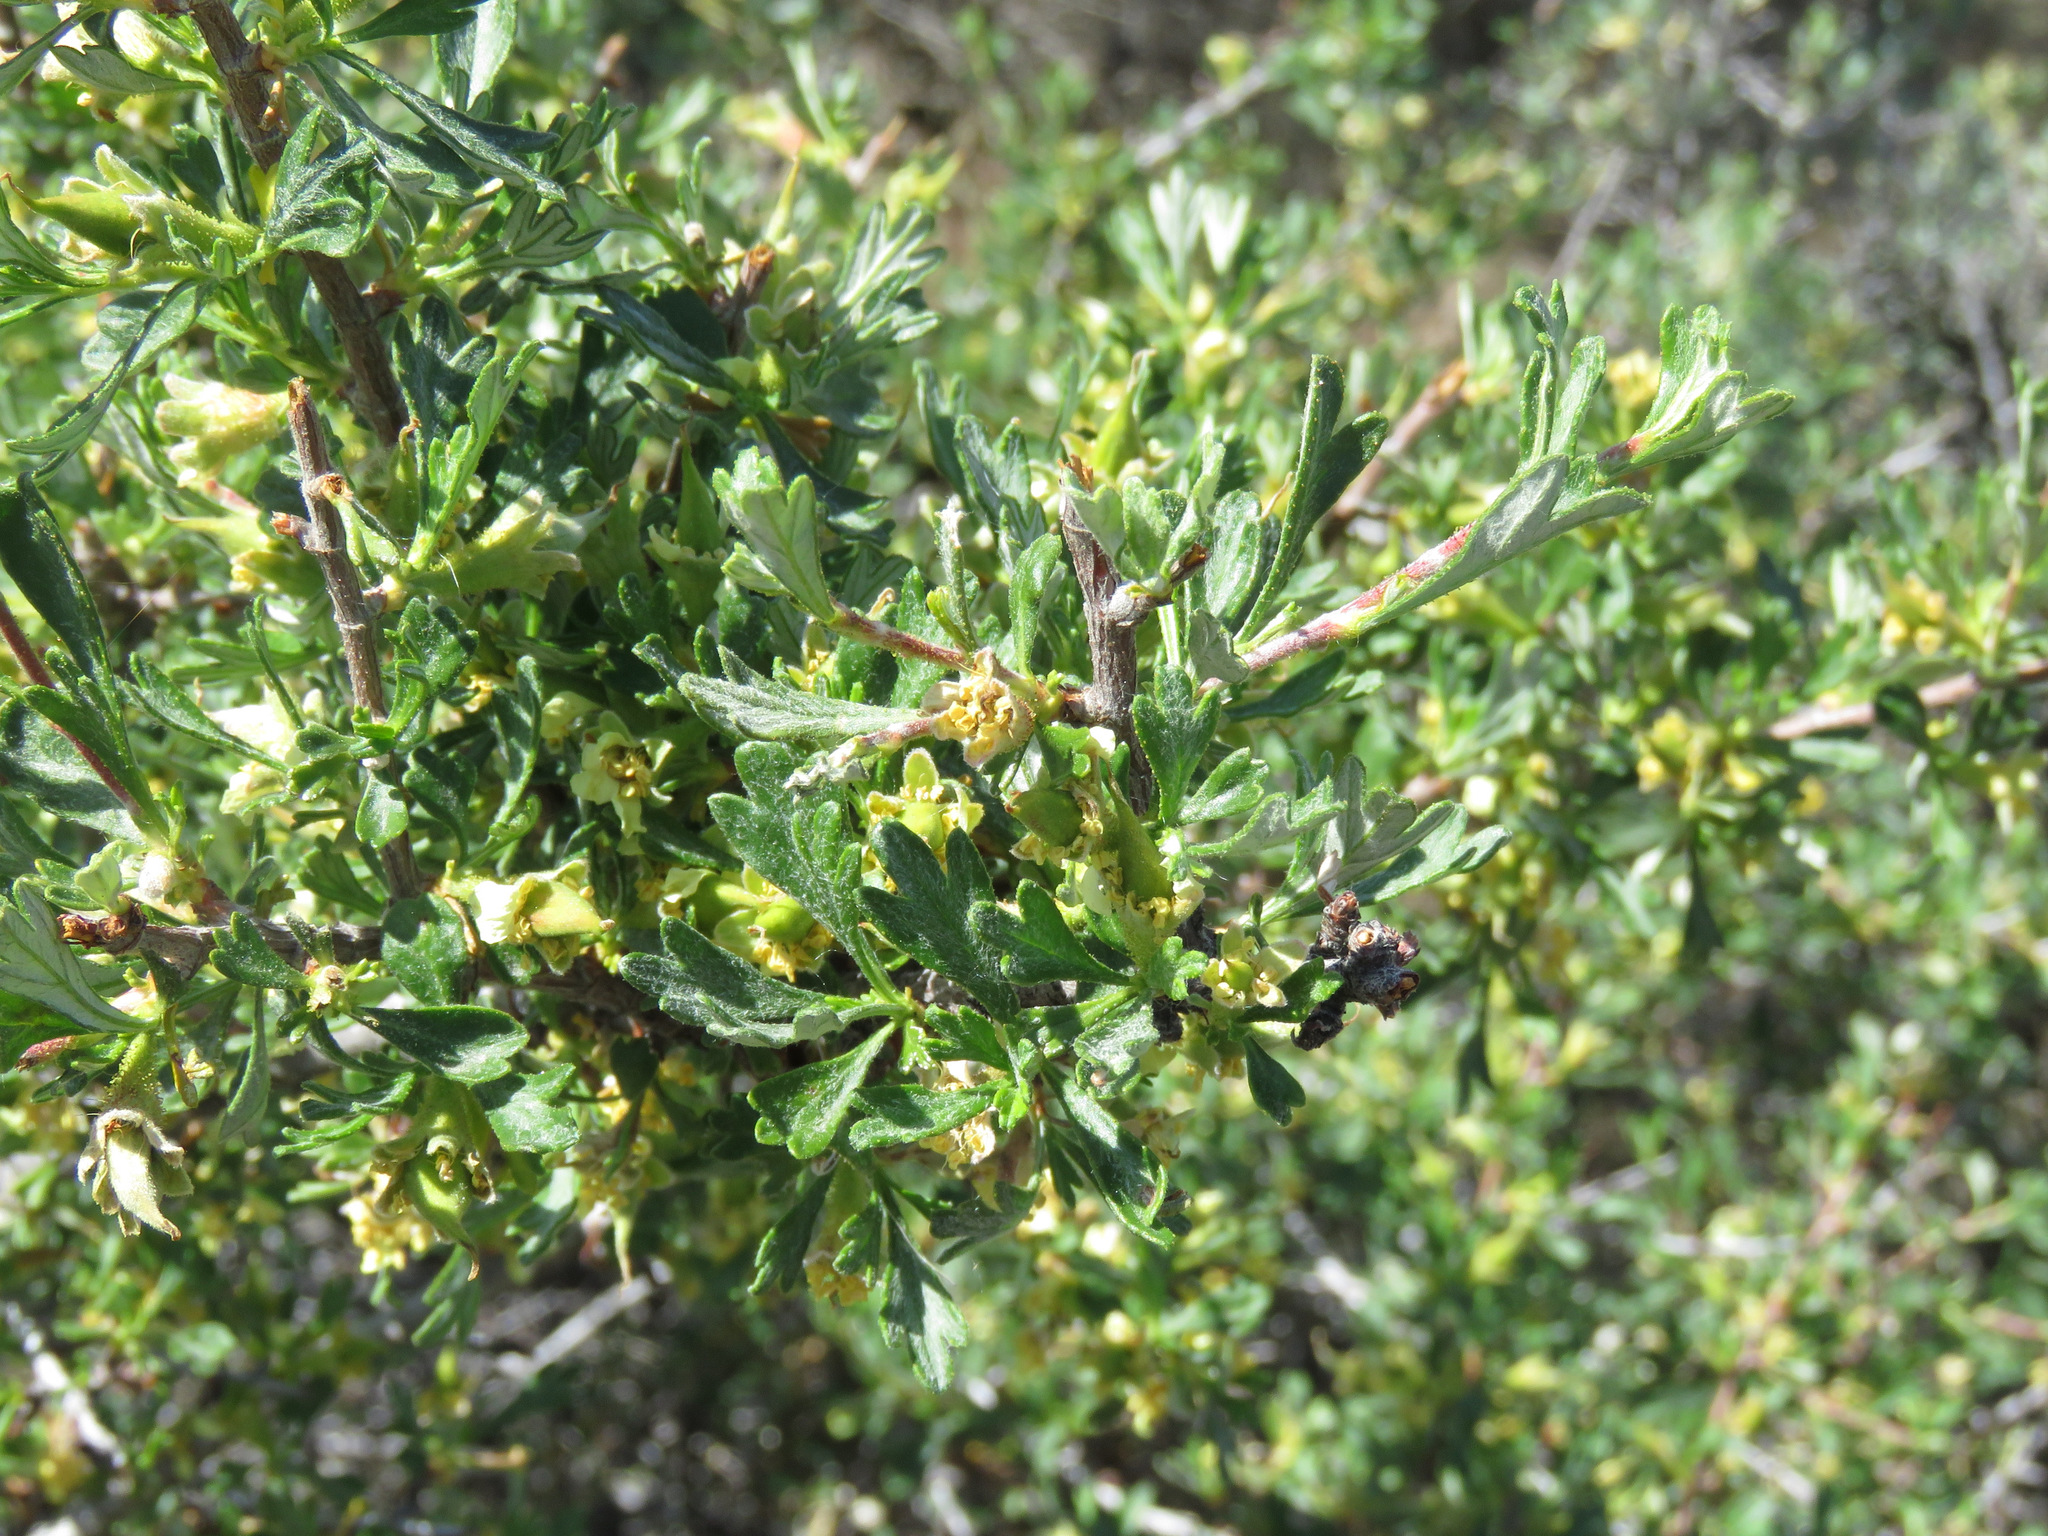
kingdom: Plantae
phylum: Tracheophyta
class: Magnoliopsida
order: Rosales
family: Rosaceae
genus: Purshia
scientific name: Purshia tridentata
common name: Antelope bitterbrush
